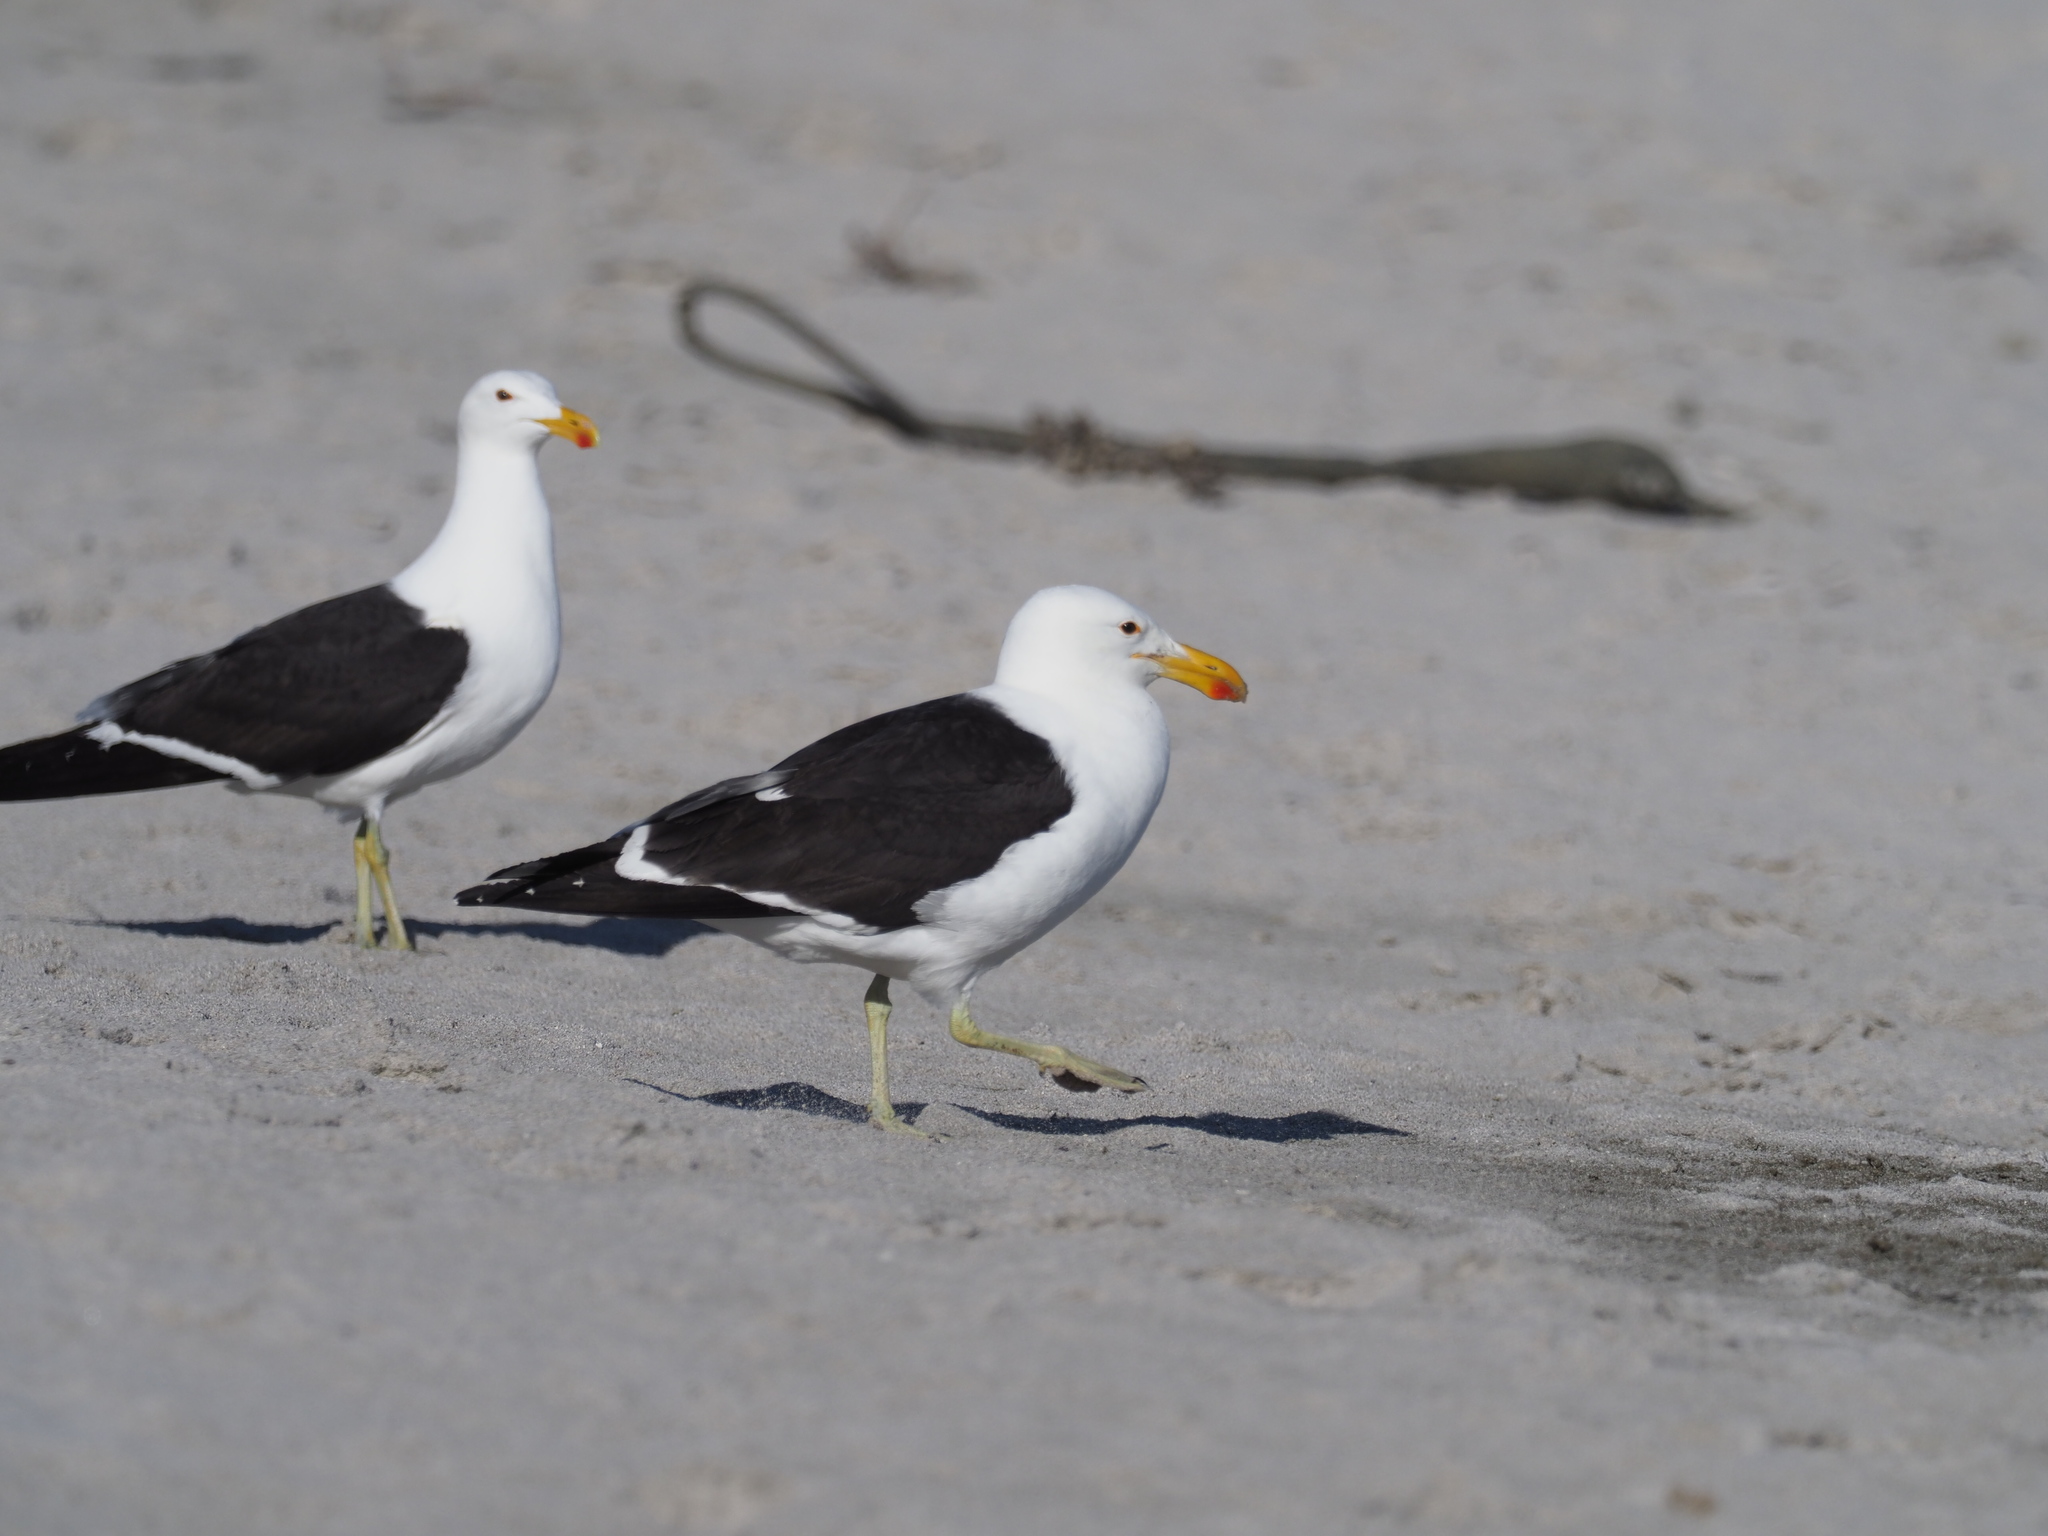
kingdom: Animalia
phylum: Chordata
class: Aves
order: Charadriiformes
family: Laridae
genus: Larus
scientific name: Larus dominicanus
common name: Kelp gull
